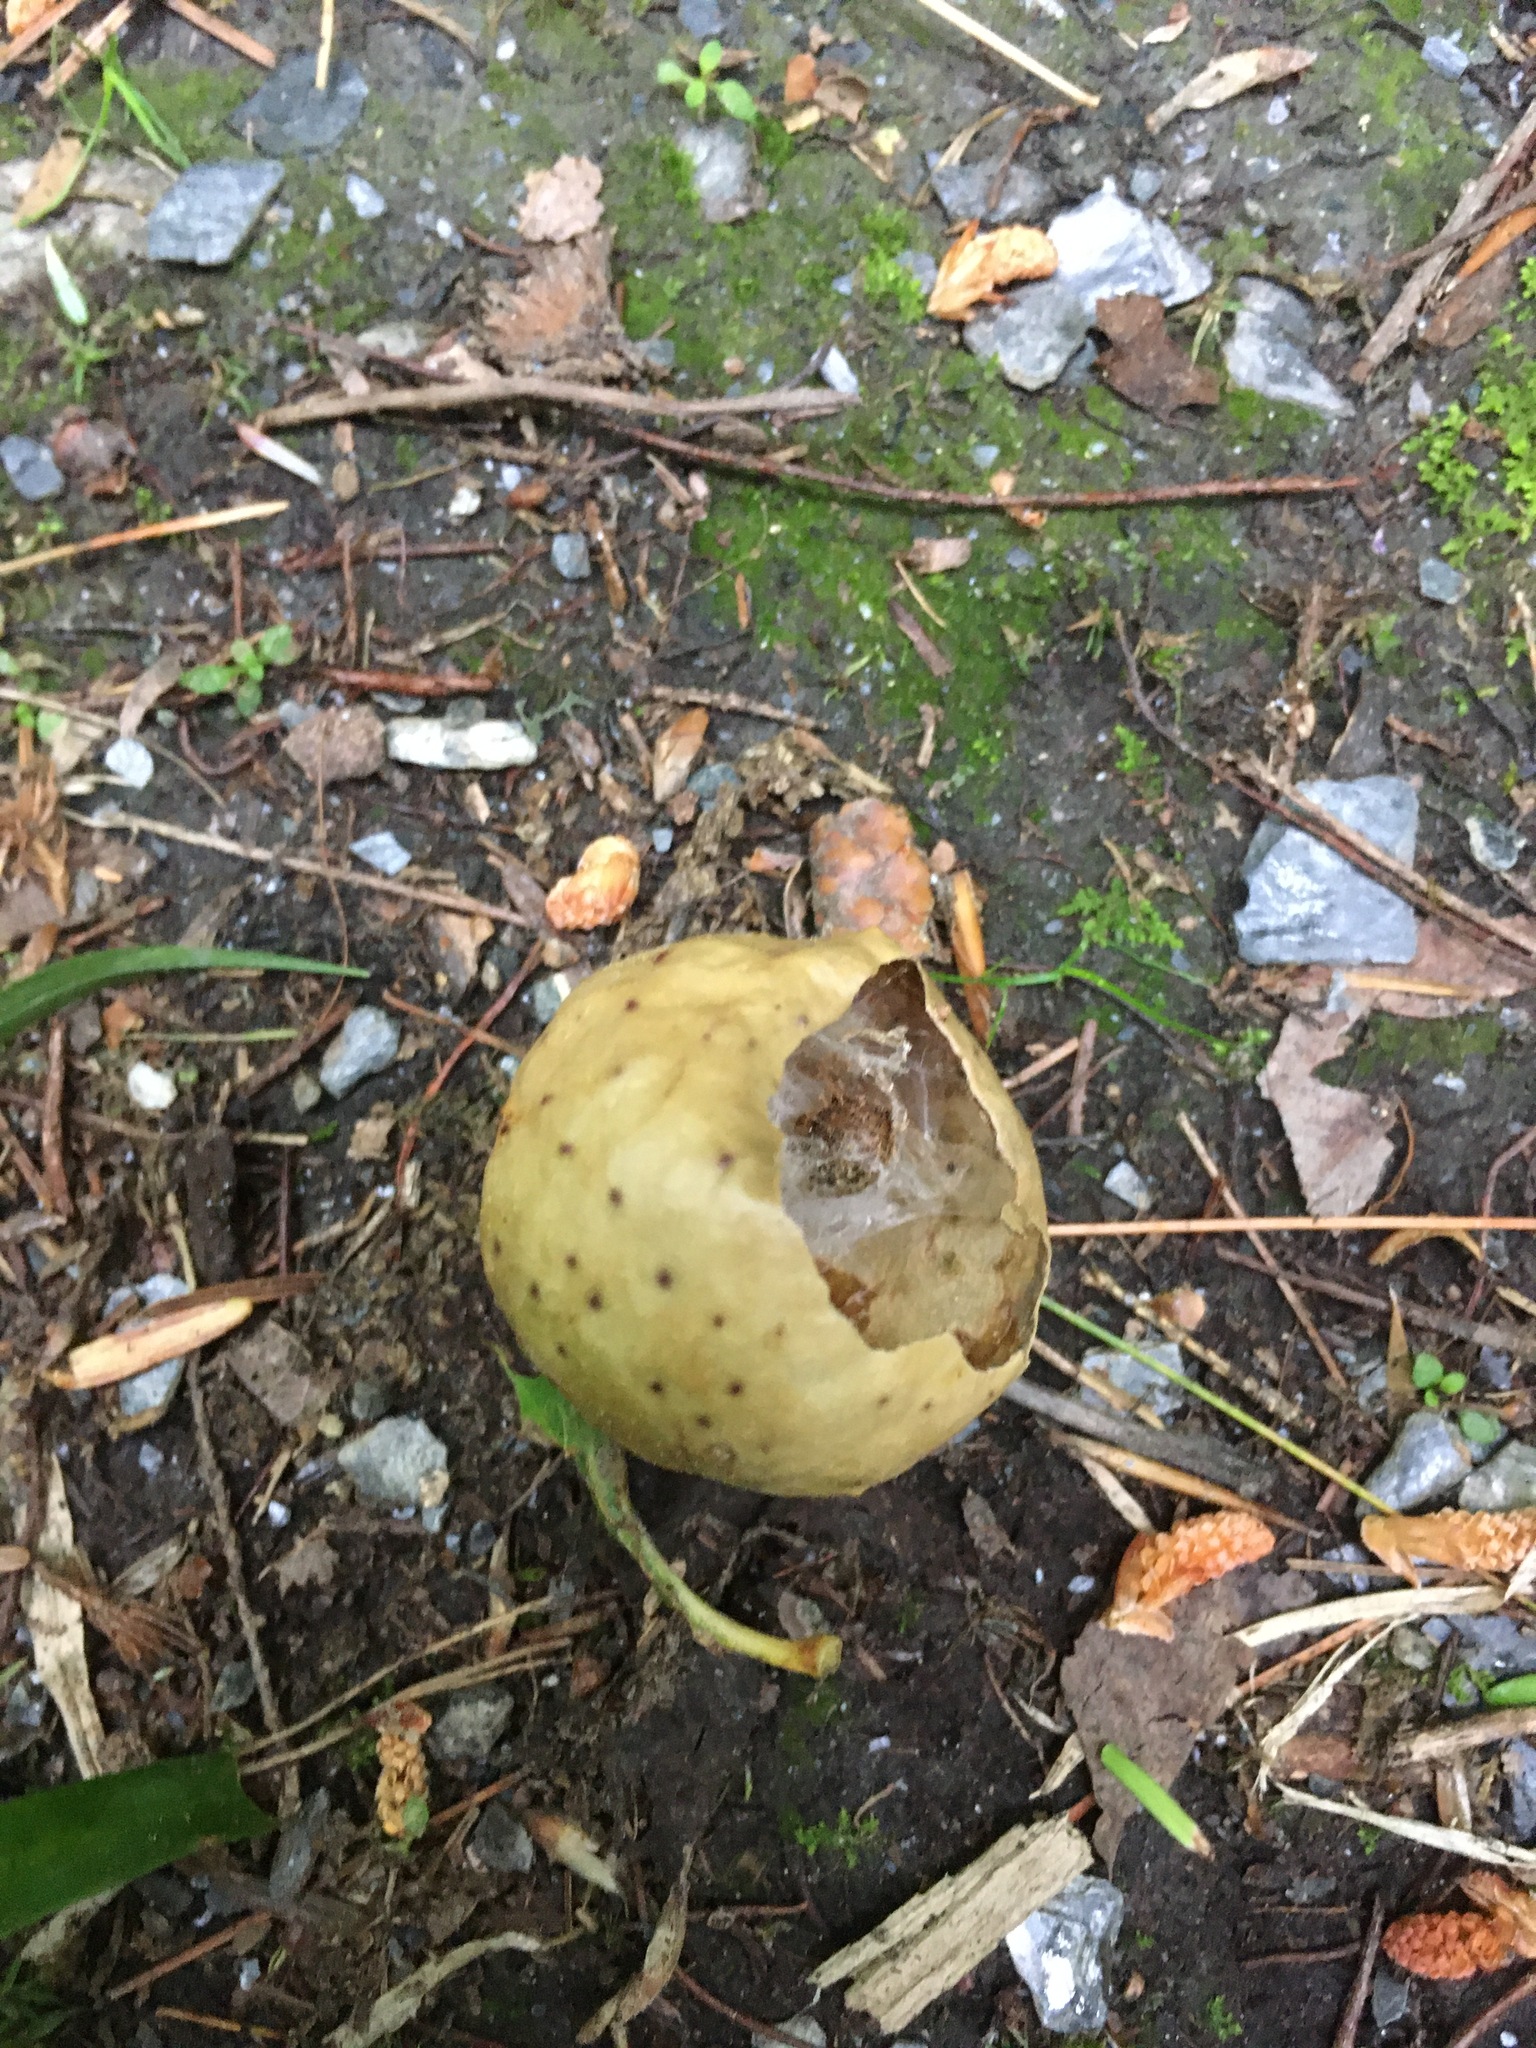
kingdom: Animalia
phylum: Arthropoda
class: Insecta
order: Hymenoptera
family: Cynipidae
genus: Amphibolips
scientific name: Amphibolips
